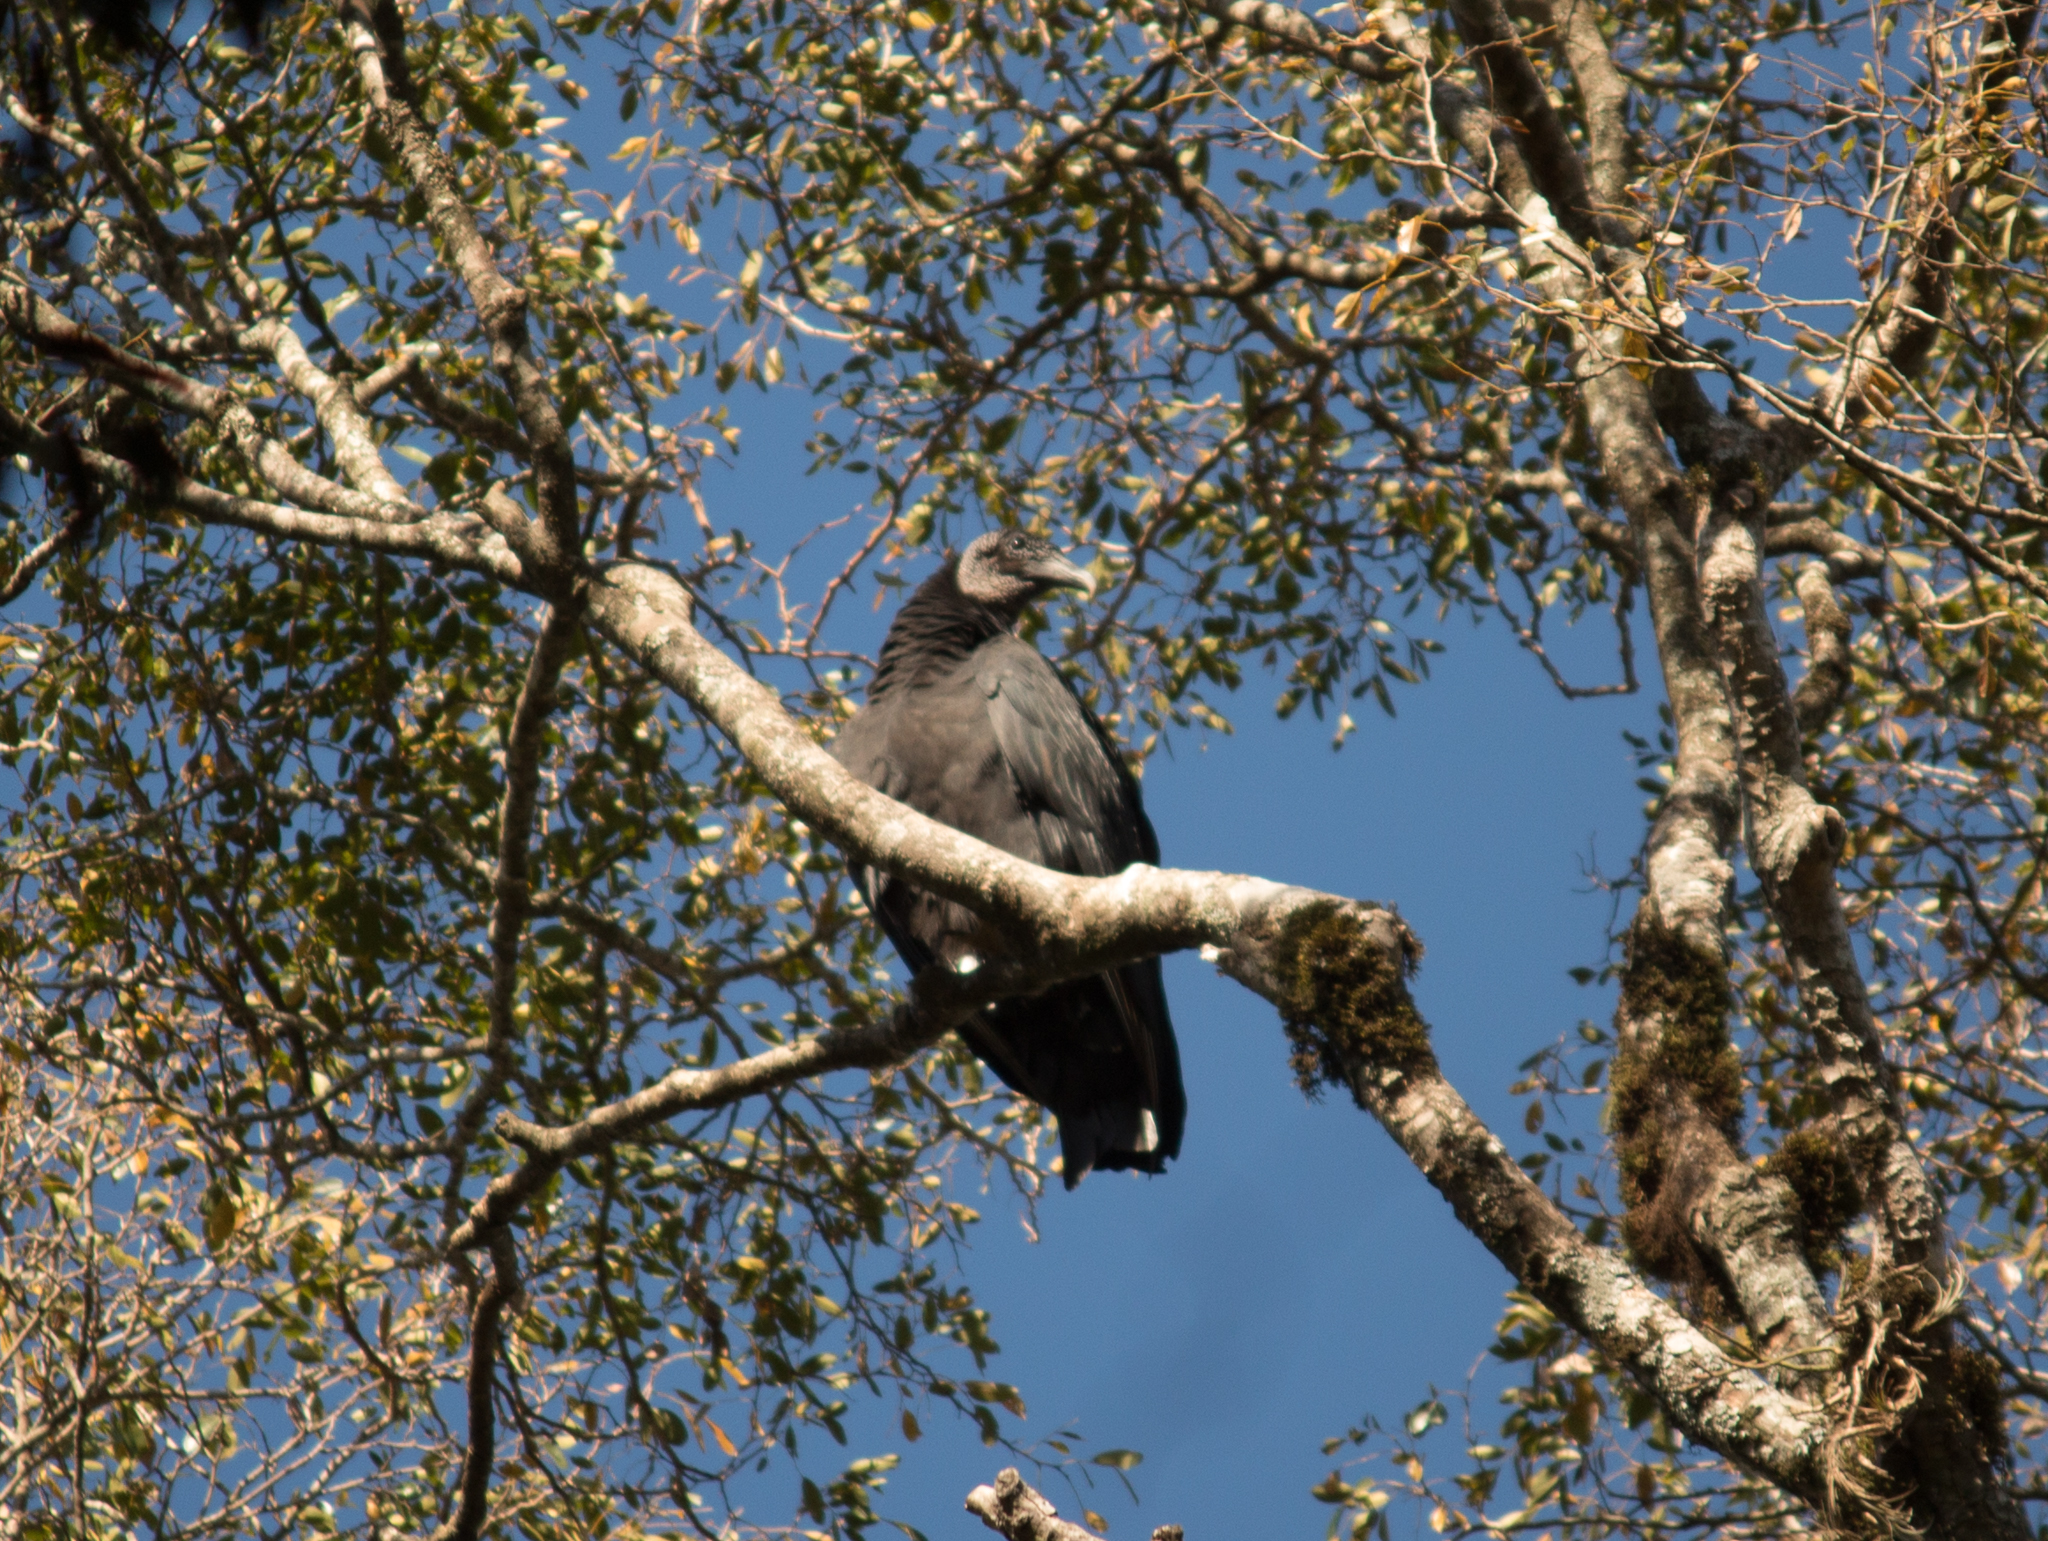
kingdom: Animalia
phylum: Chordata
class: Aves
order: Accipitriformes
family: Cathartidae
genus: Coragyps
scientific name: Coragyps atratus
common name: Black vulture
